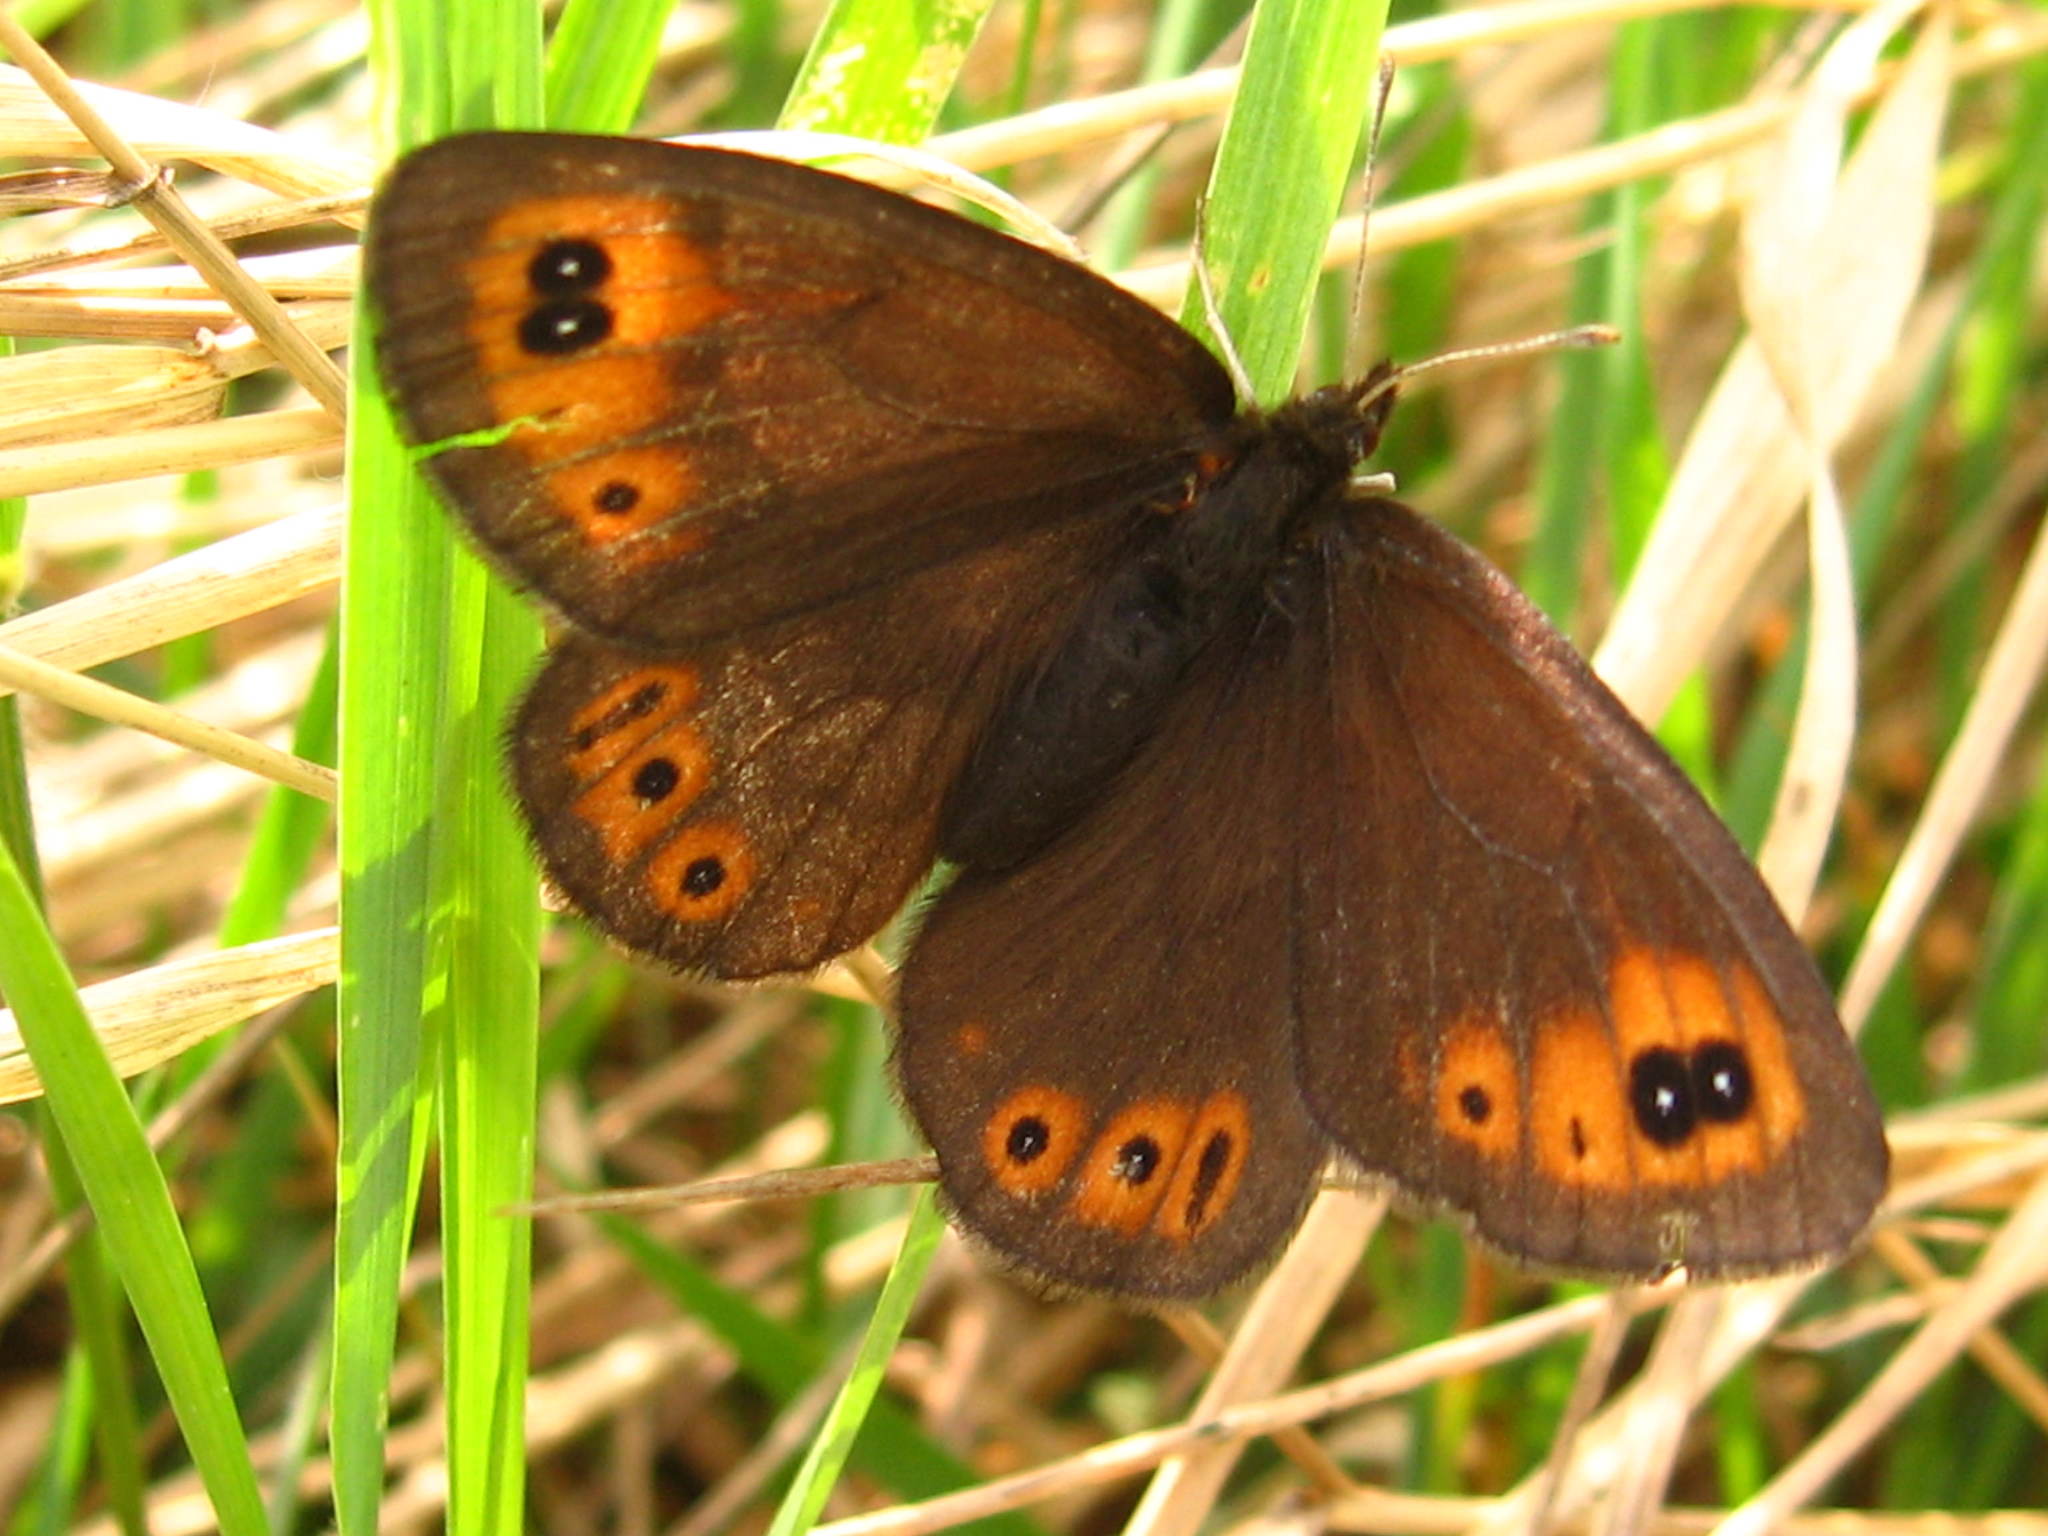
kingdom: Animalia
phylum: Arthropoda
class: Insecta
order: Lepidoptera
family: Nymphalidae
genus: Erebia
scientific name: Erebia epipsodea
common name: Common alpine
